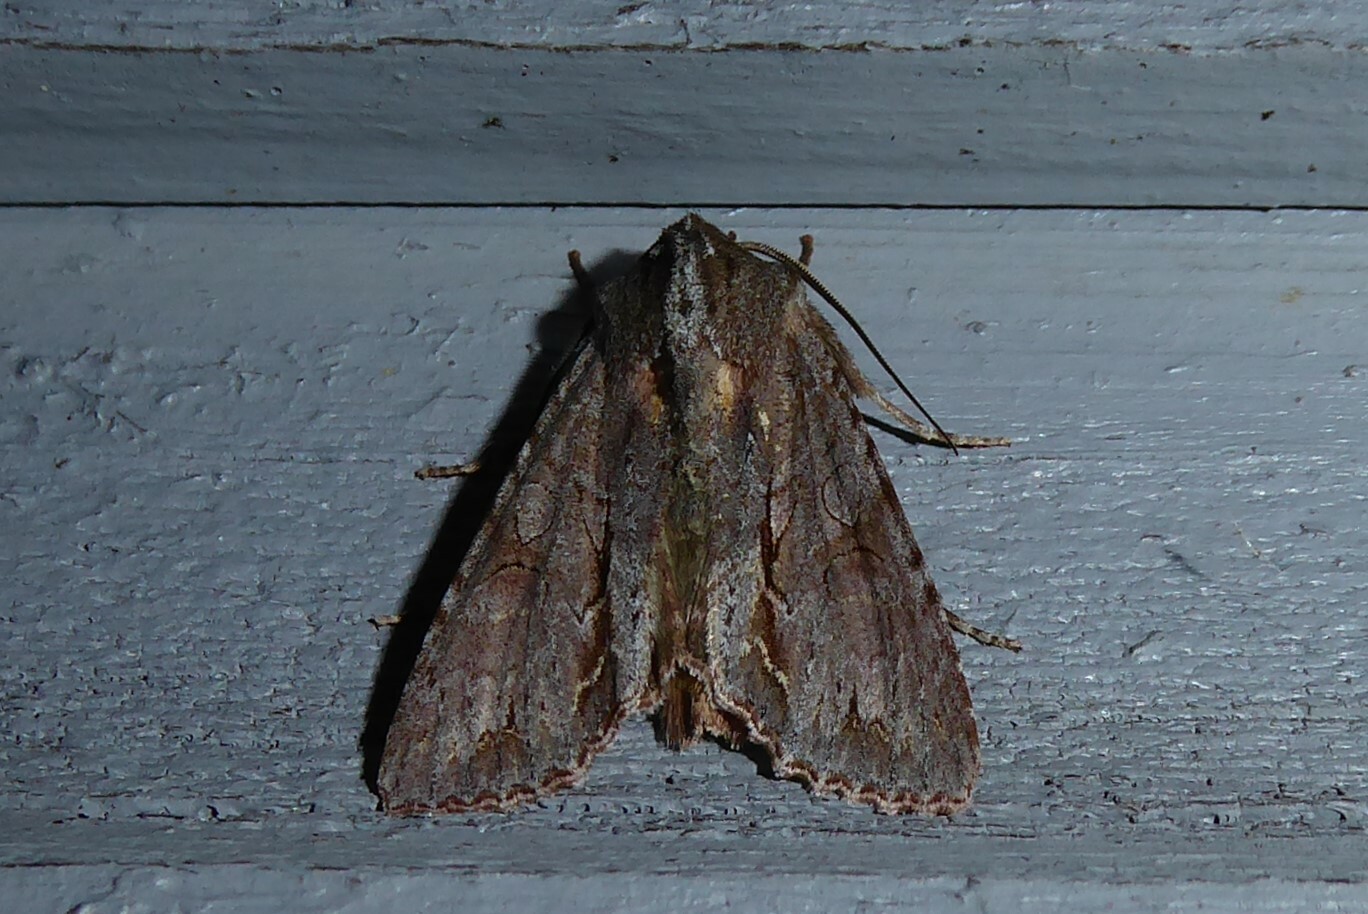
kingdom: Animalia
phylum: Arthropoda
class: Insecta
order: Lepidoptera
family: Noctuidae
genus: Ichneutica
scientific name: Ichneutica
